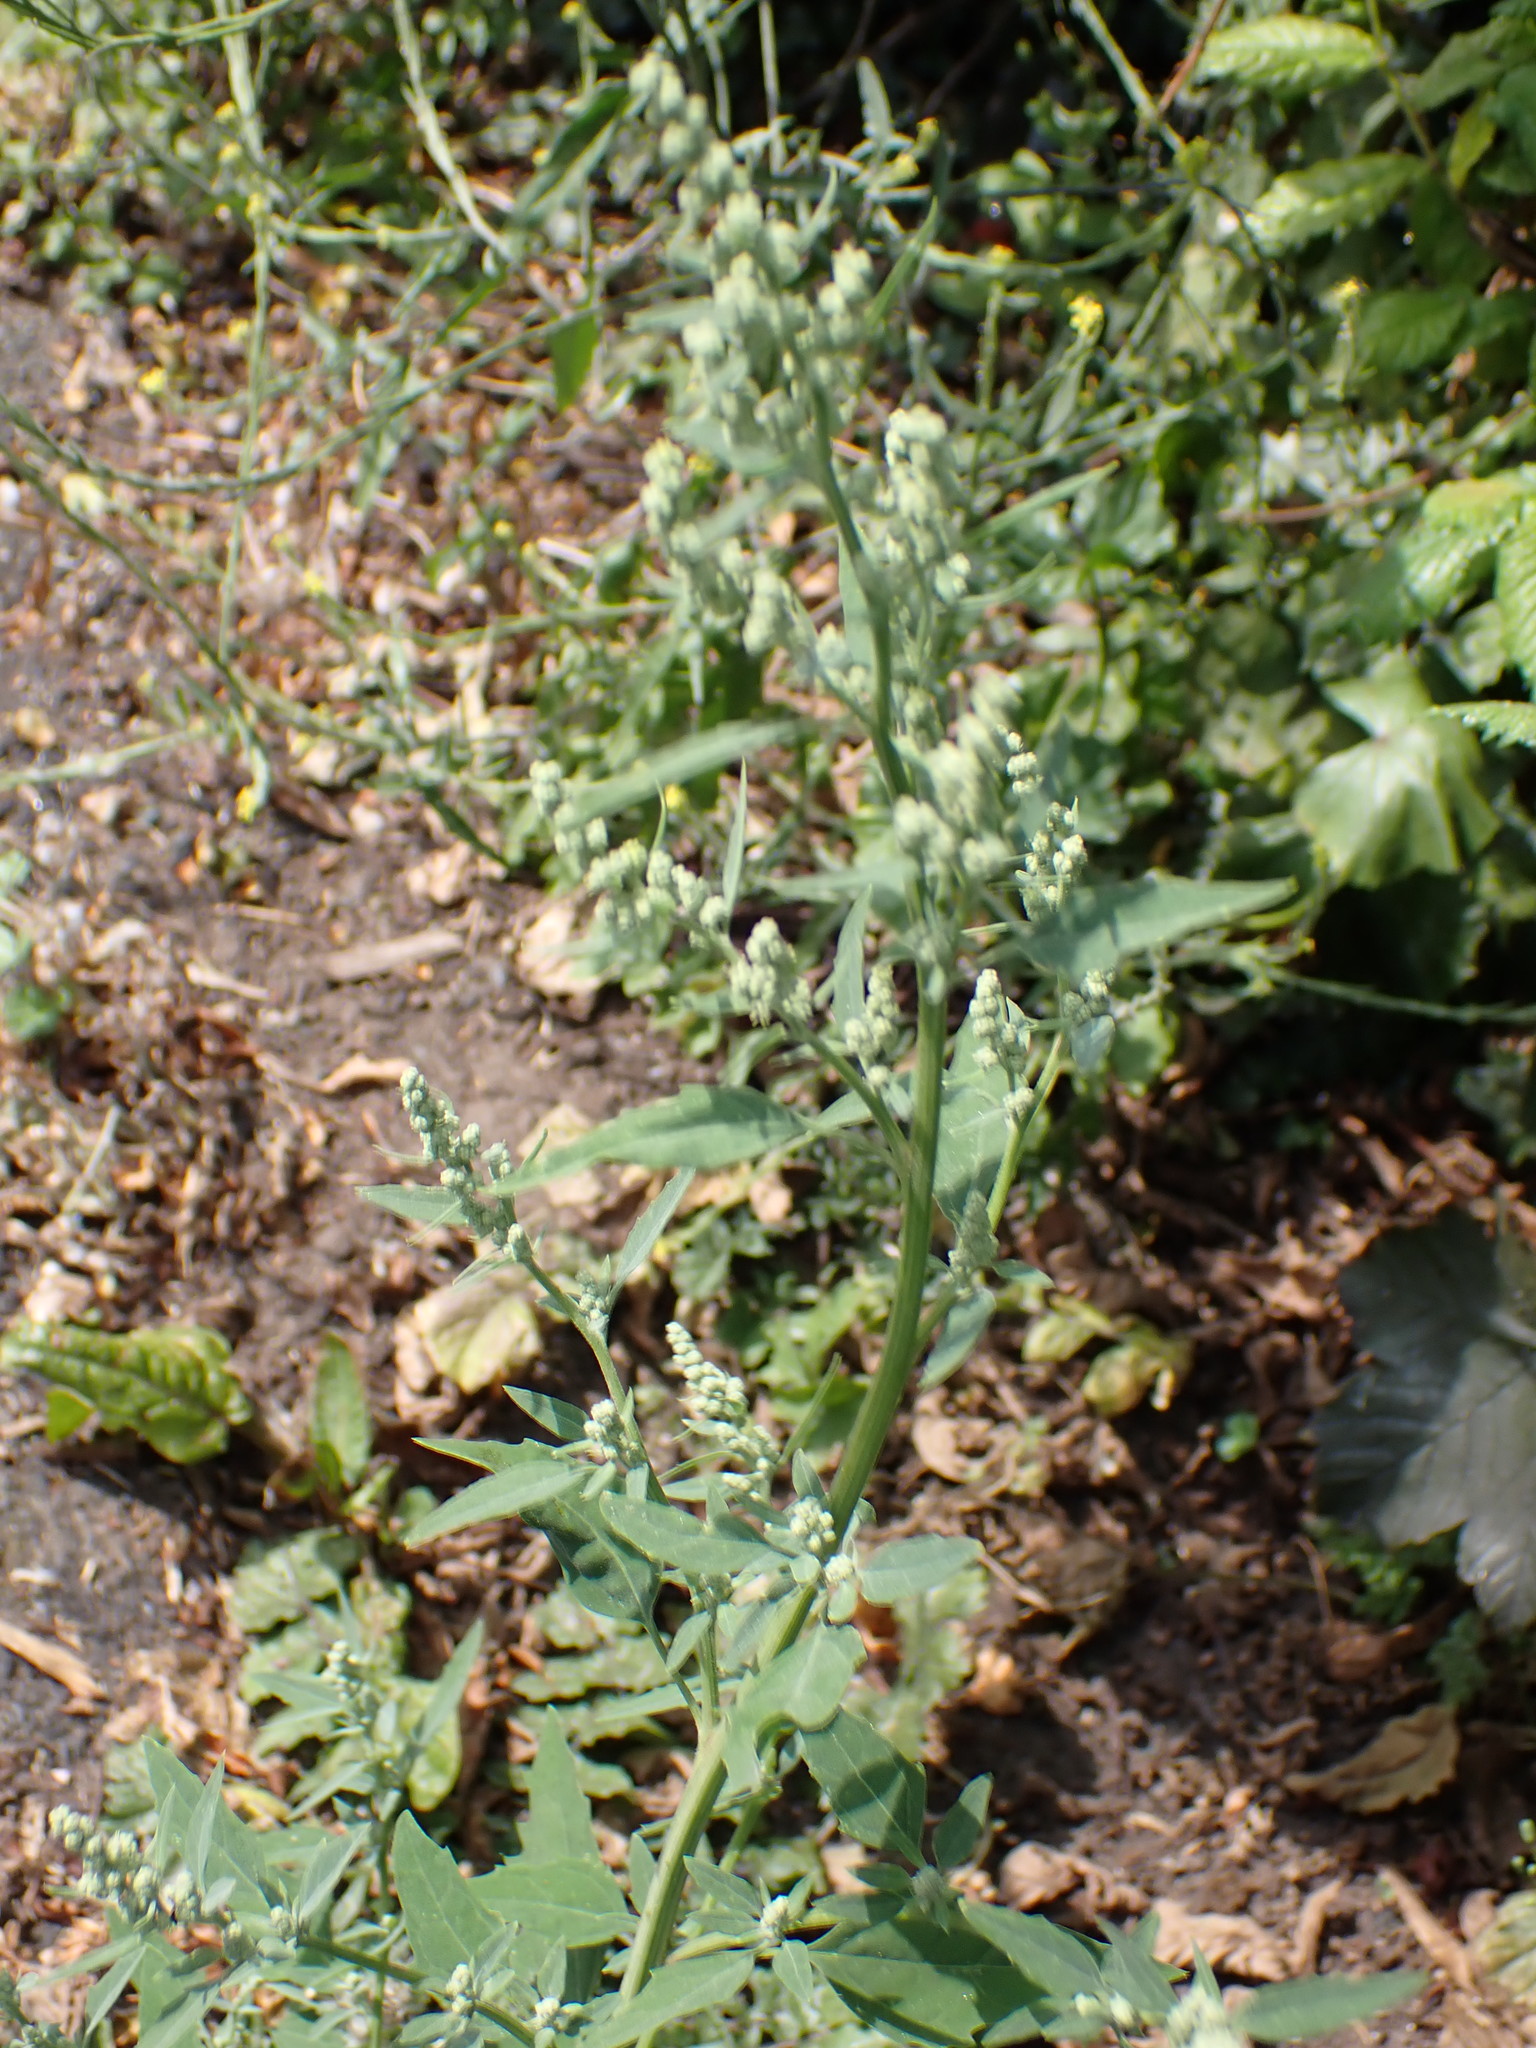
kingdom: Plantae
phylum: Tracheophyta
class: Magnoliopsida
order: Asterales
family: Asteraceae
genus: Sonchus
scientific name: Sonchus oleraceus
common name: Common sowthistle
